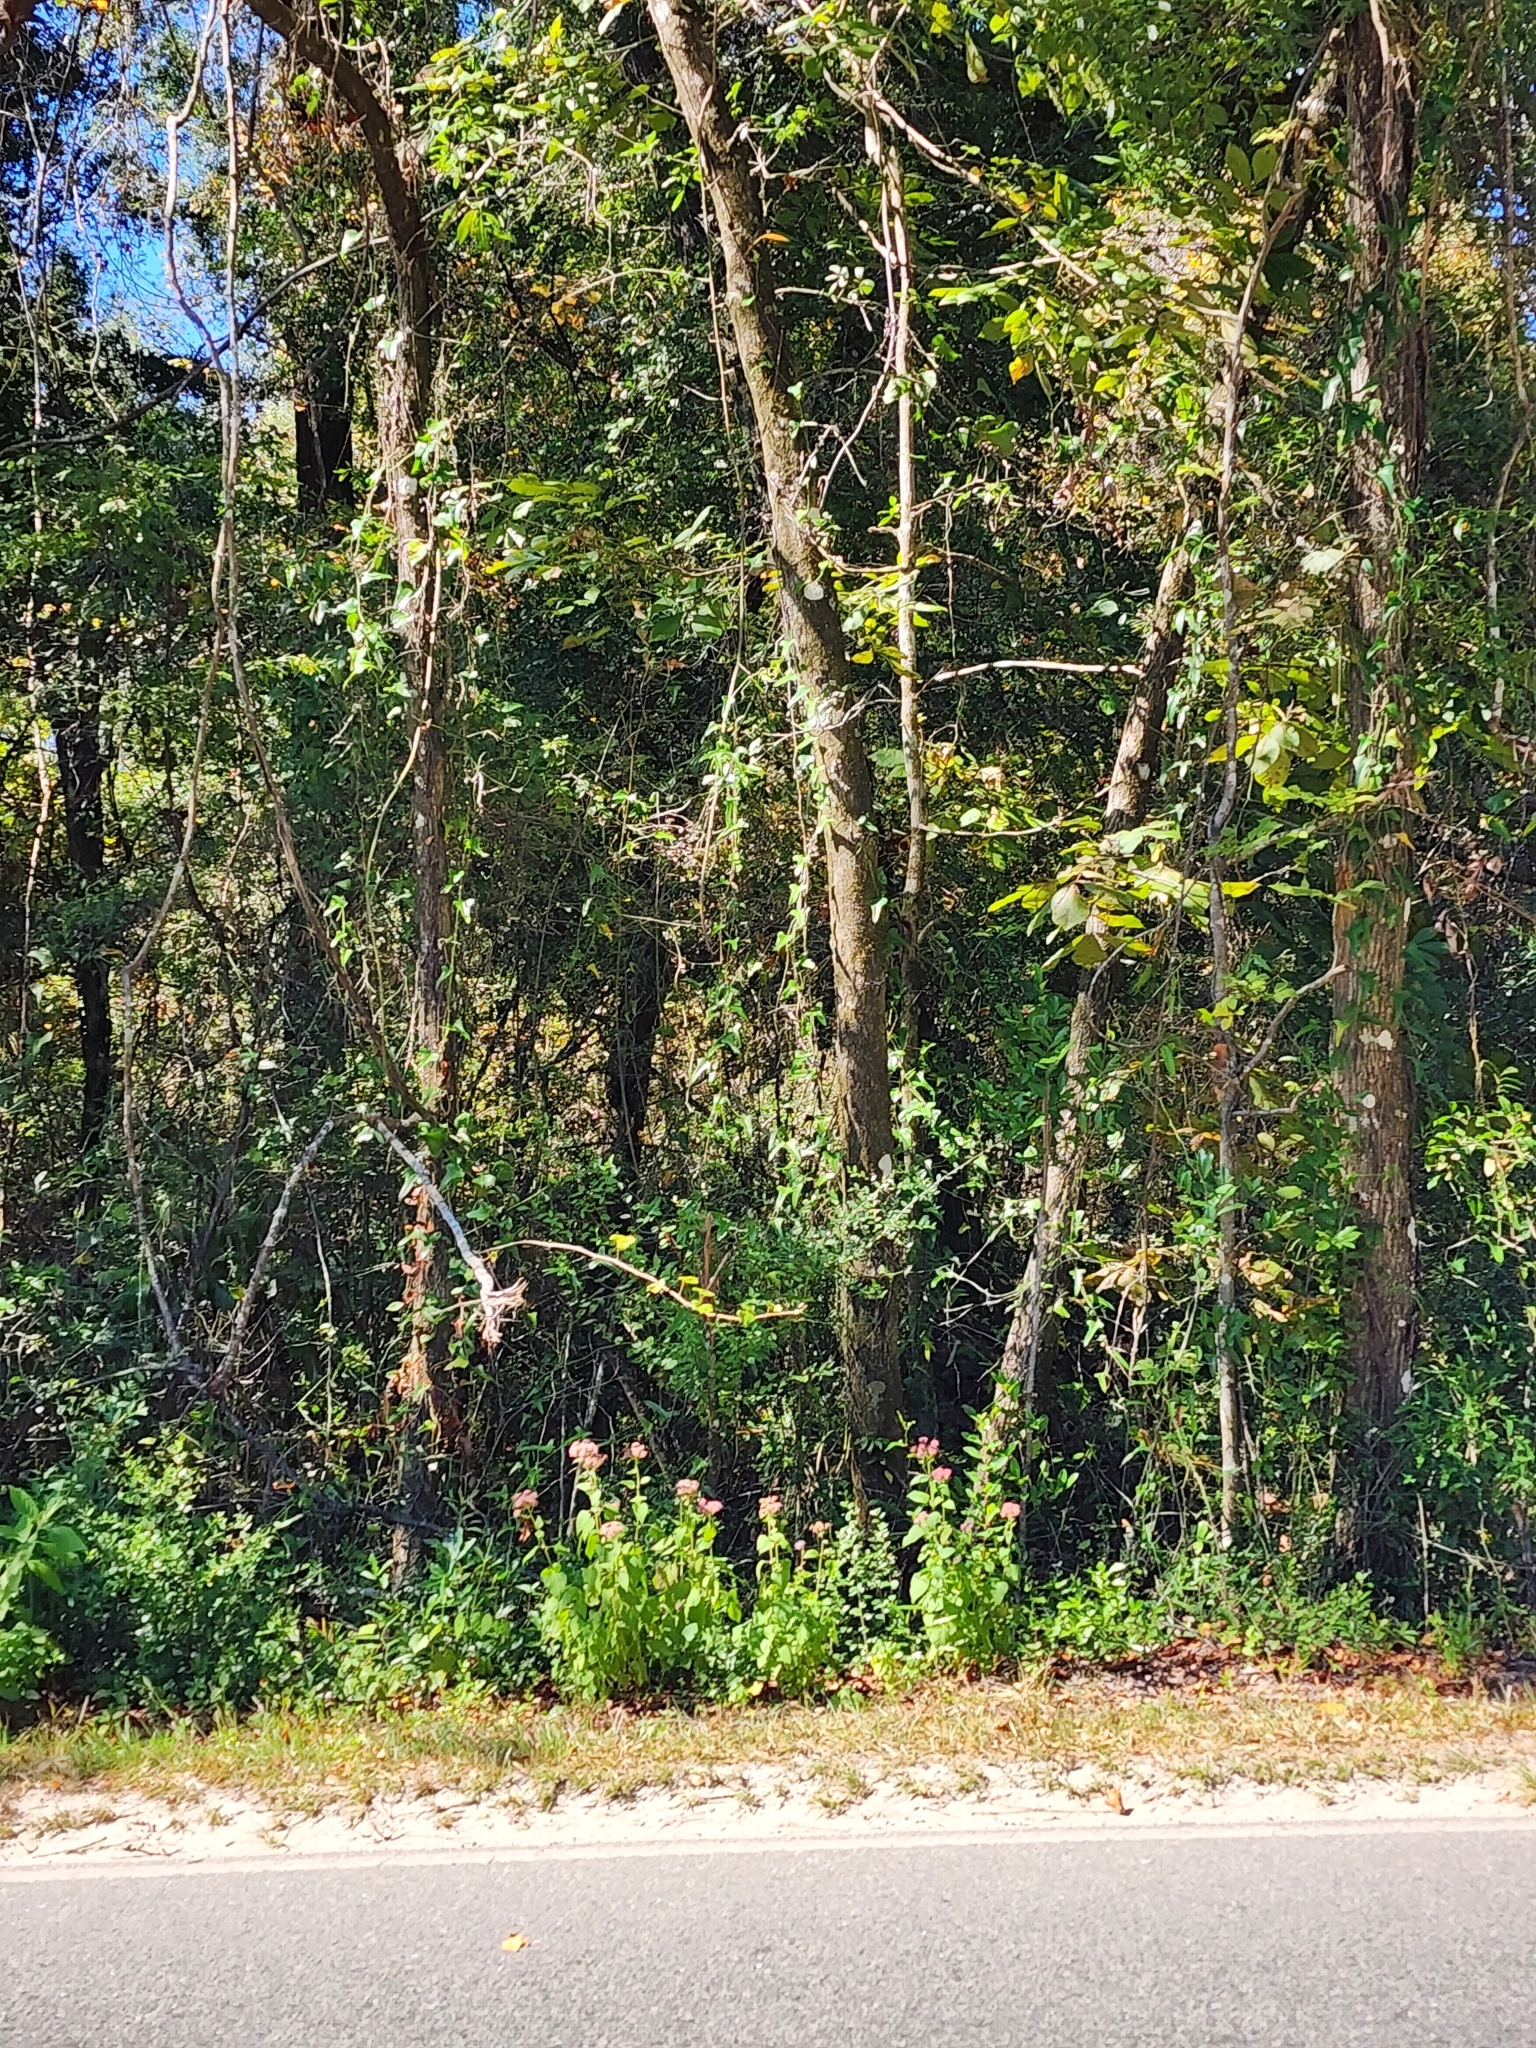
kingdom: Plantae
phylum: Tracheophyta
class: Magnoliopsida
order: Asterales
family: Asteraceae
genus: Brickellia
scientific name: Brickellia cordifolia
